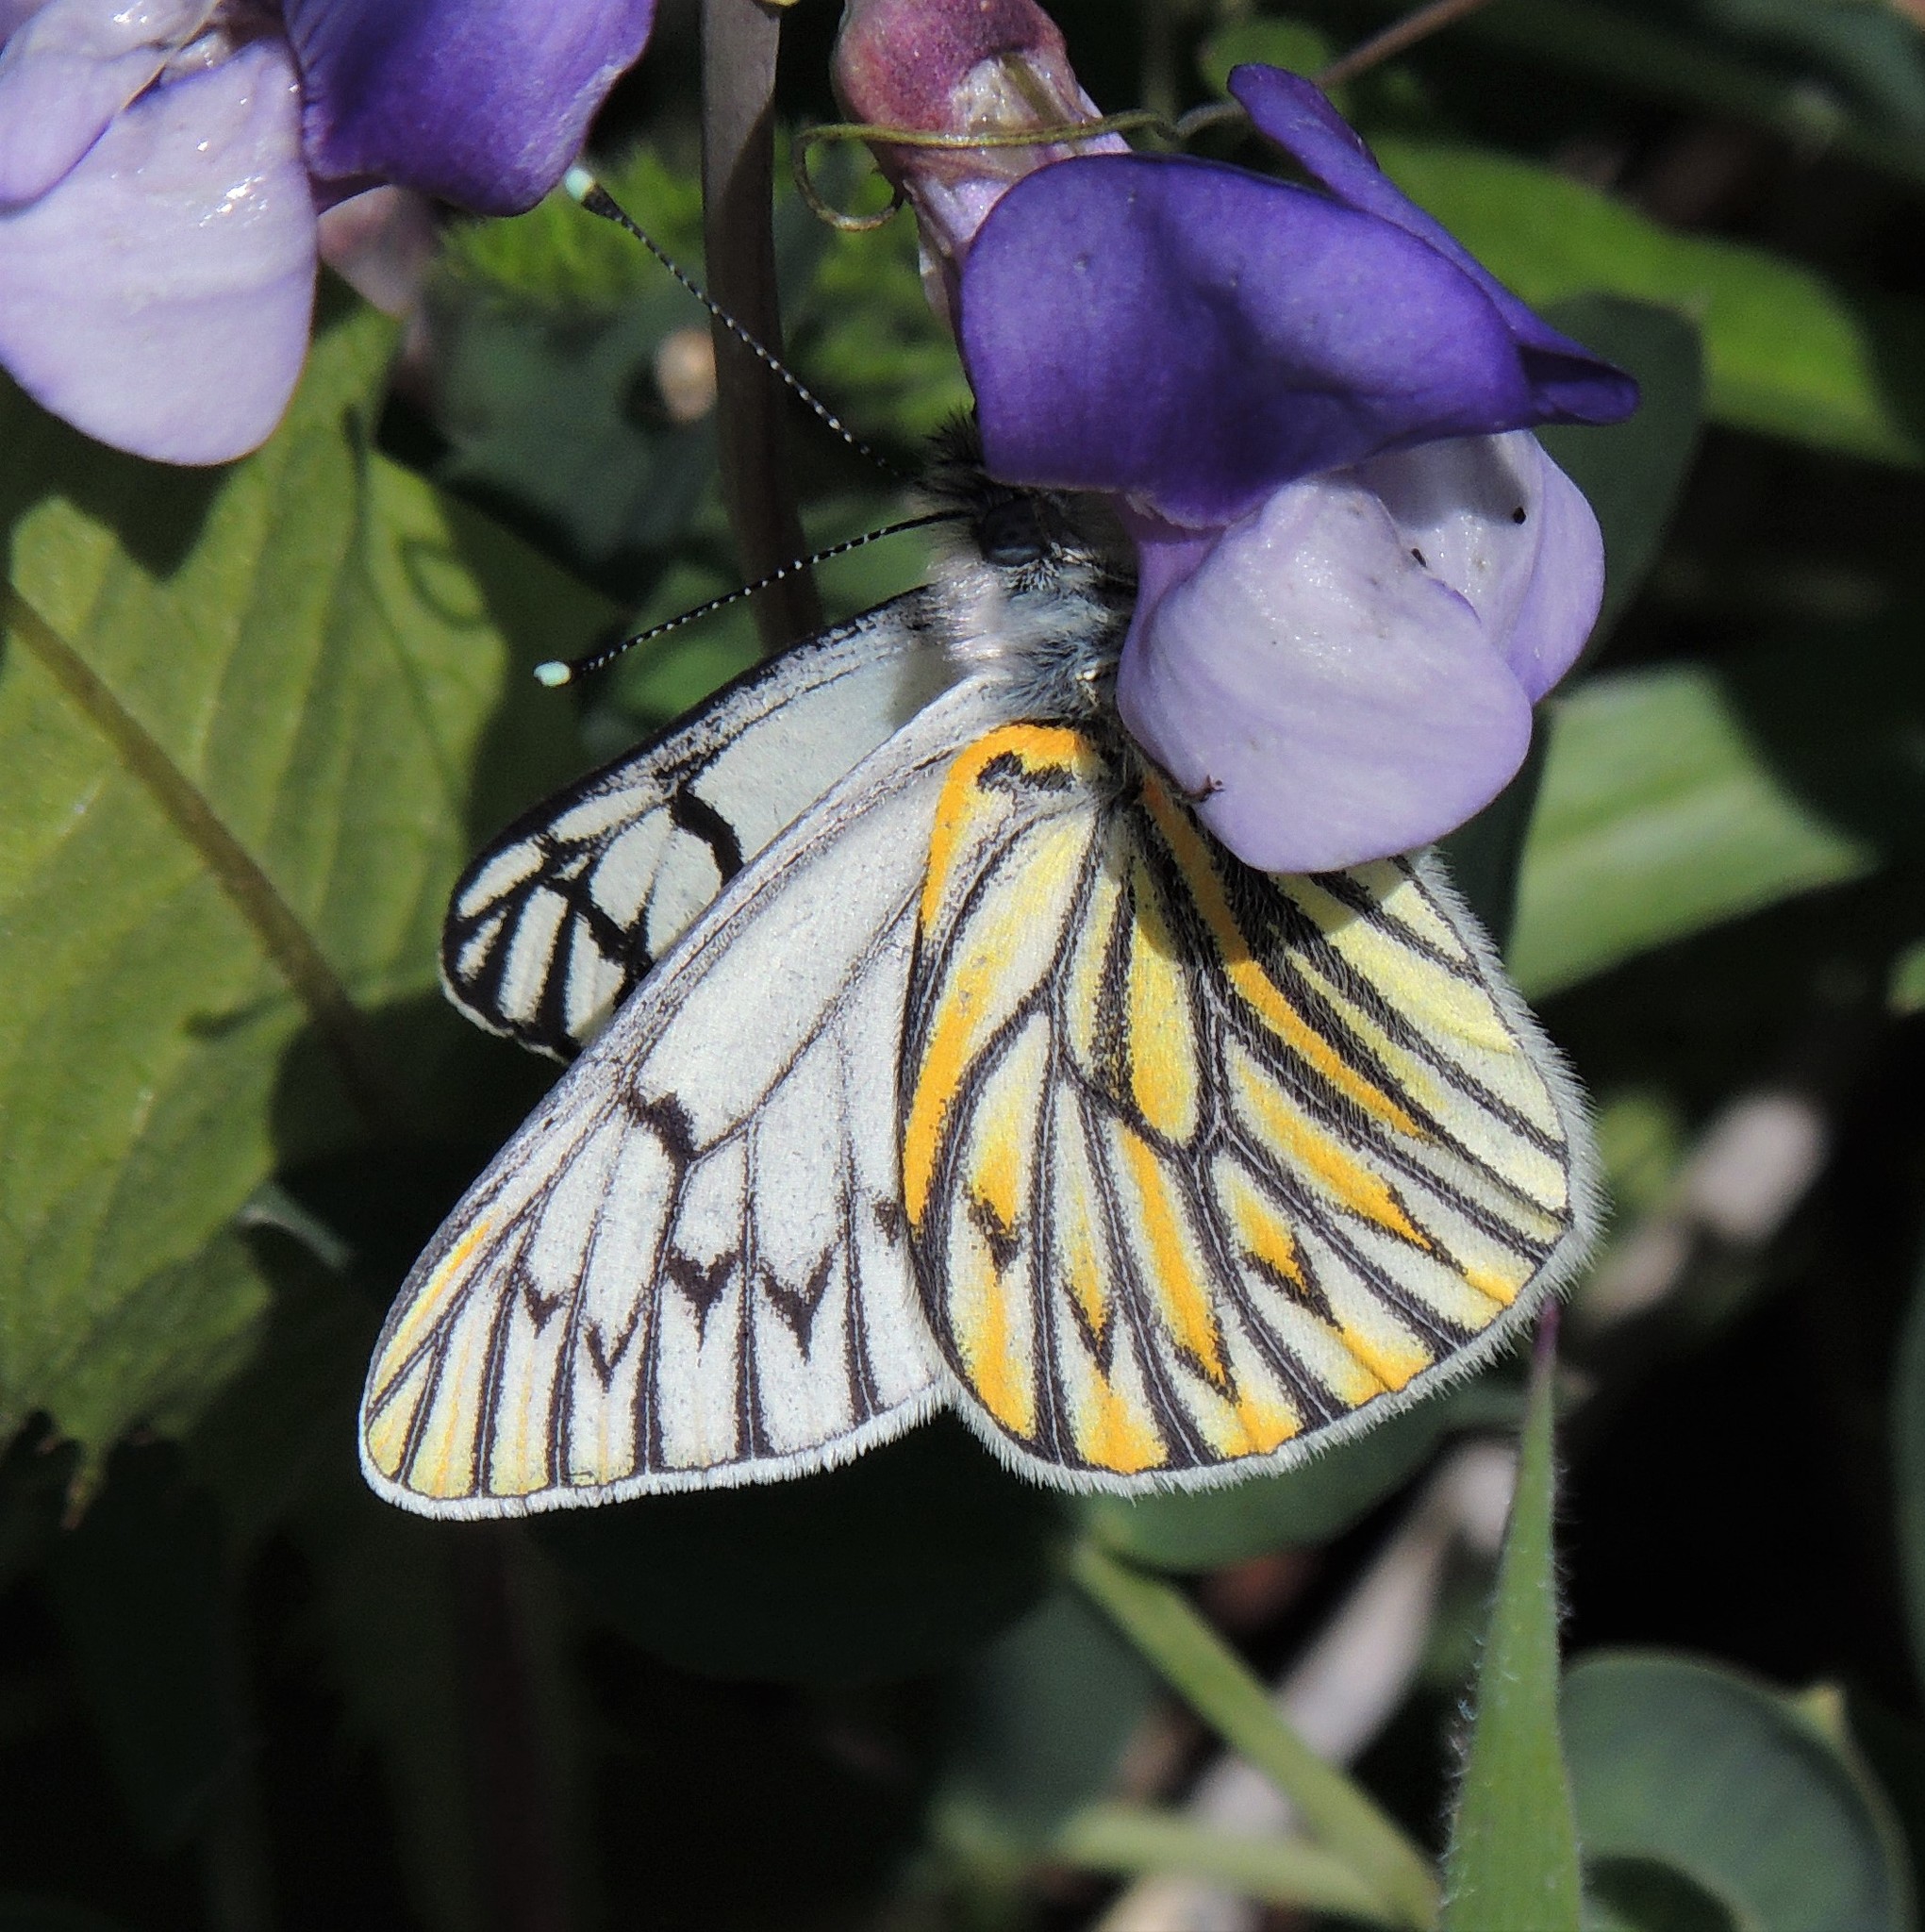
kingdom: Animalia
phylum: Arthropoda
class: Insecta
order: Lepidoptera
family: Pieridae
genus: Tatochila
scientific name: Tatochila theodice
